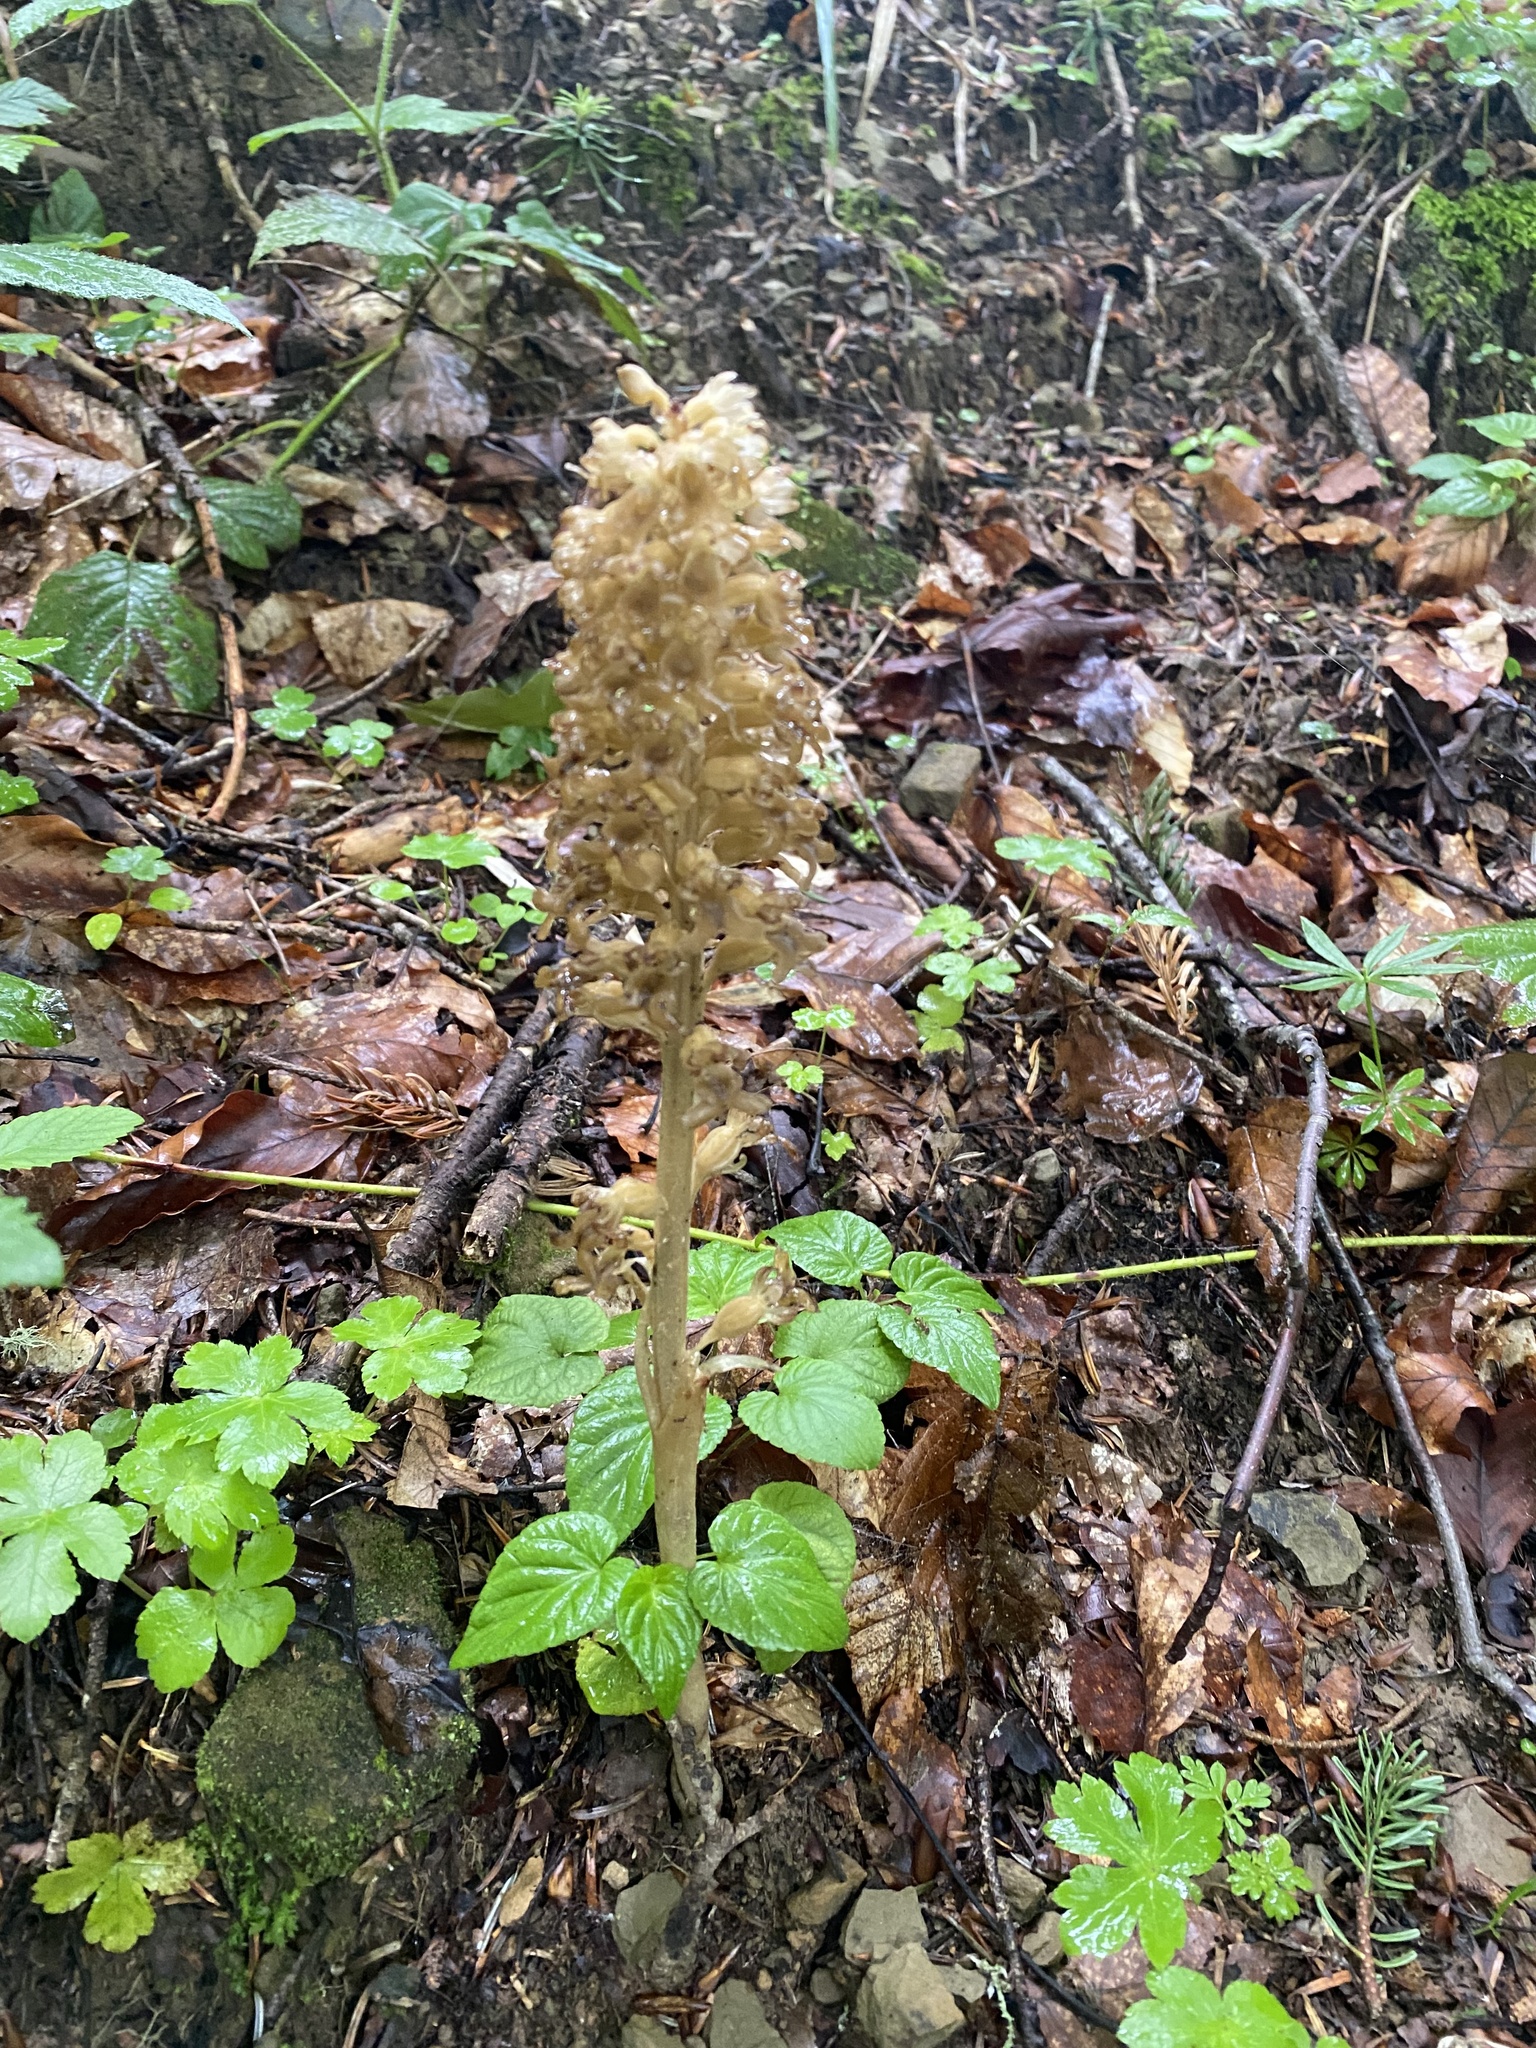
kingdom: Plantae
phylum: Tracheophyta
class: Liliopsida
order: Asparagales
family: Orchidaceae
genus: Neottia
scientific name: Neottia nidus-avis
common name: Bird's-nest orchid
